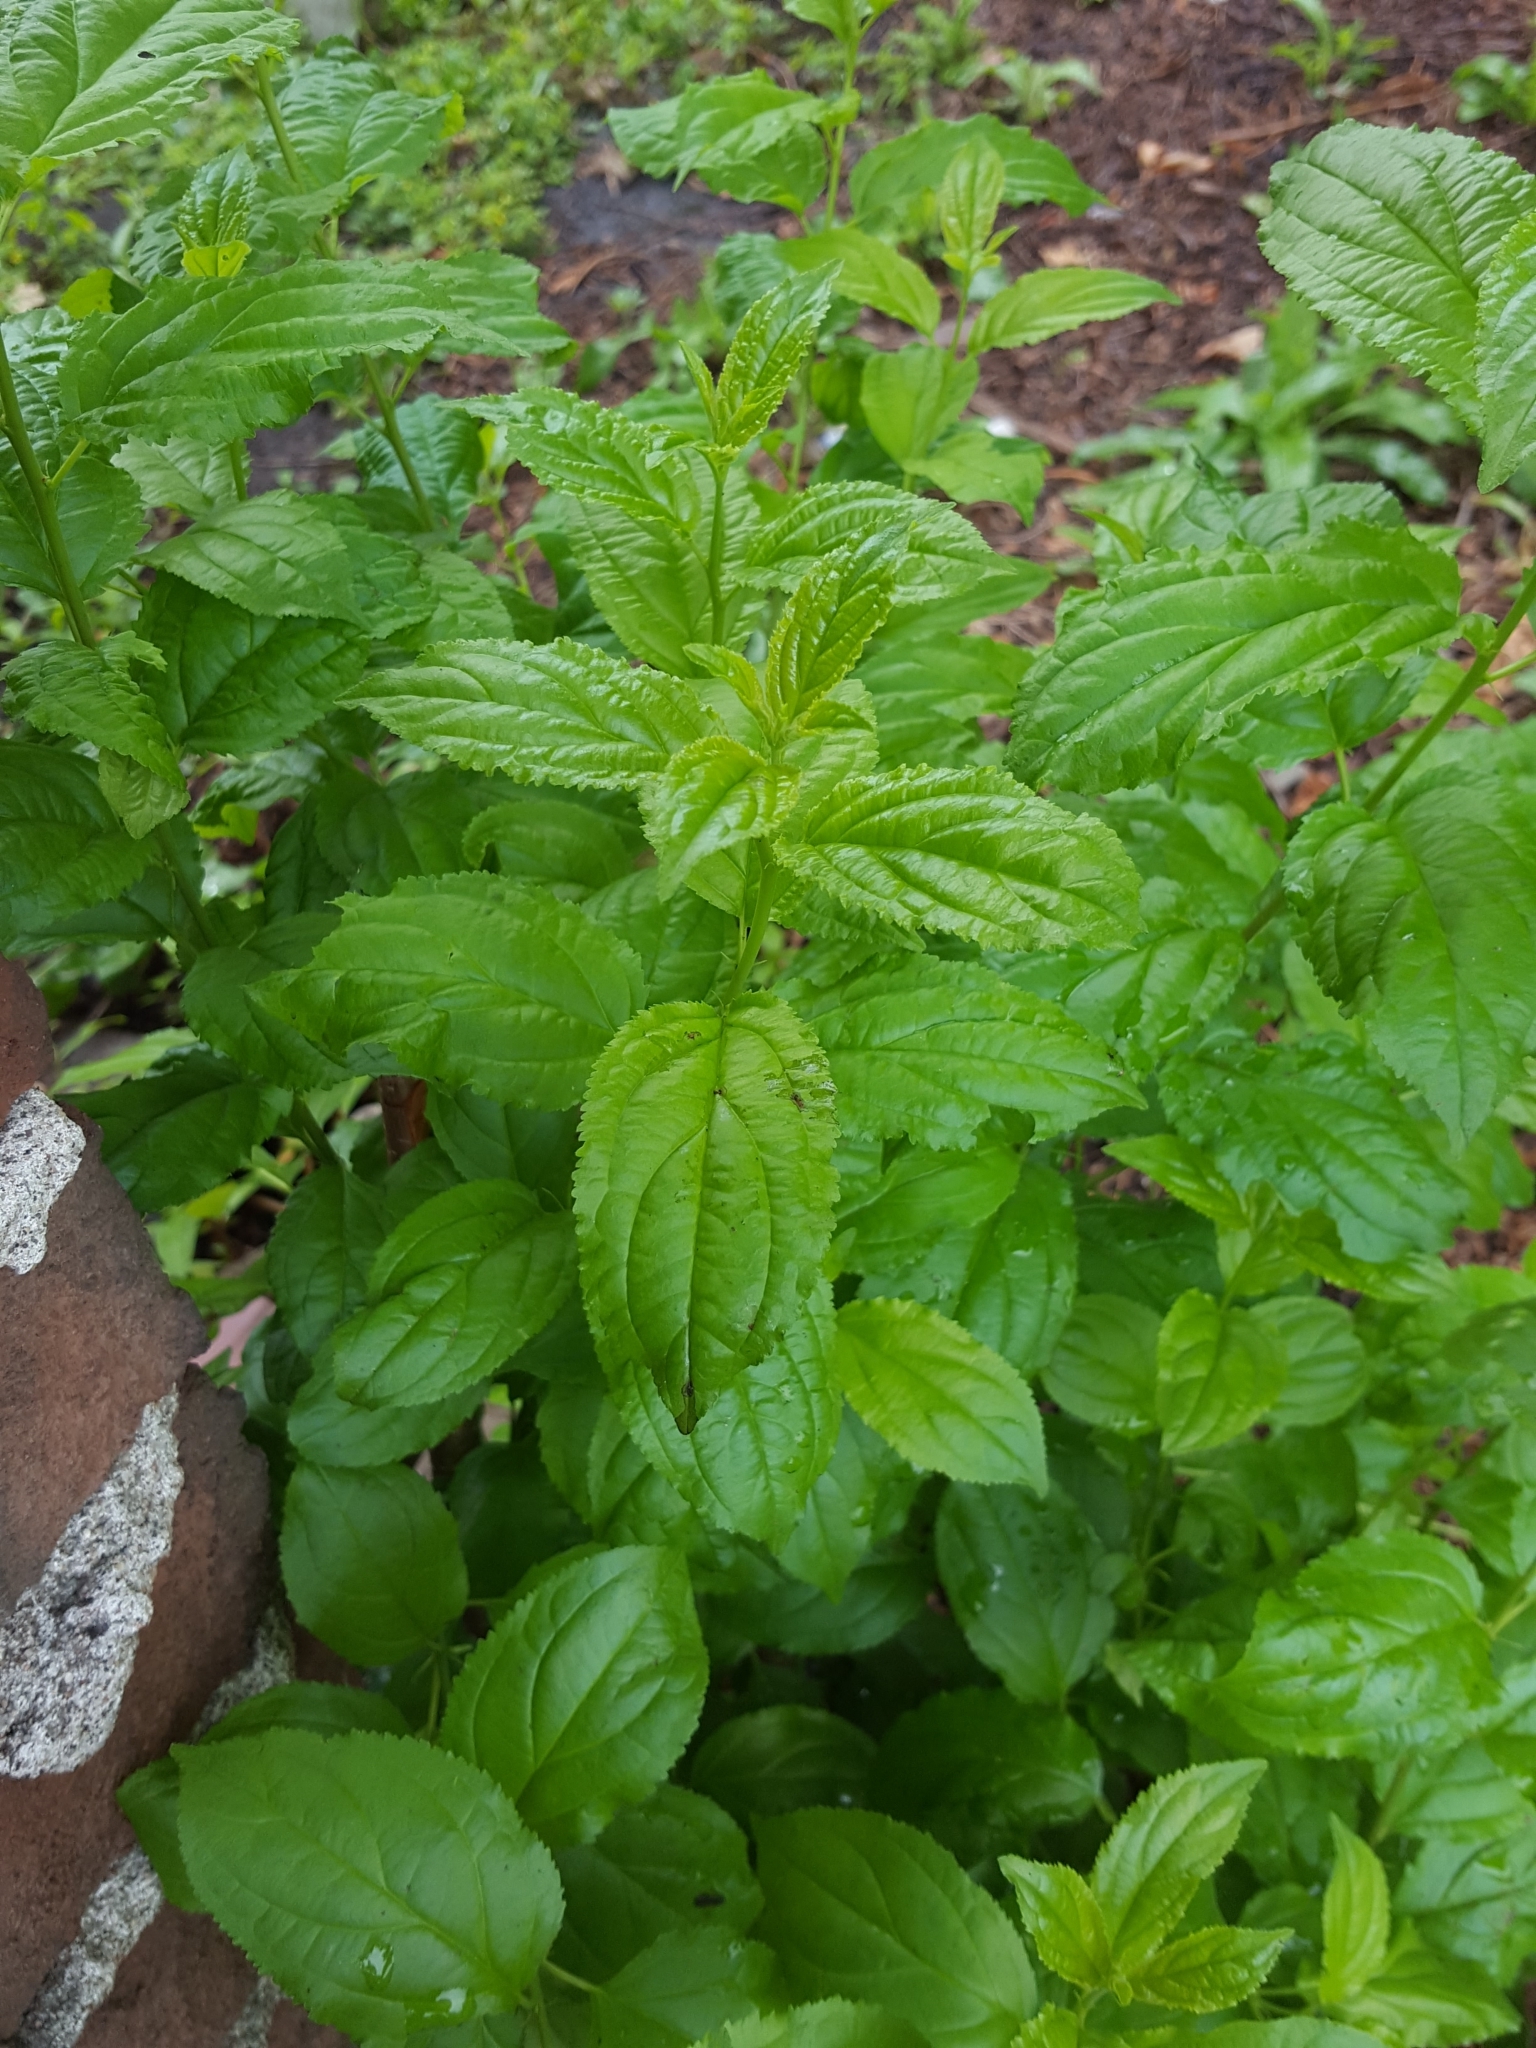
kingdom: Plantae
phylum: Tracheophyta
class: Magnoliopsida
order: Rosales
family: Rhamnaceae
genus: Rhamnus
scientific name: Rhamnus cathartica
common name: Common buckthorn
